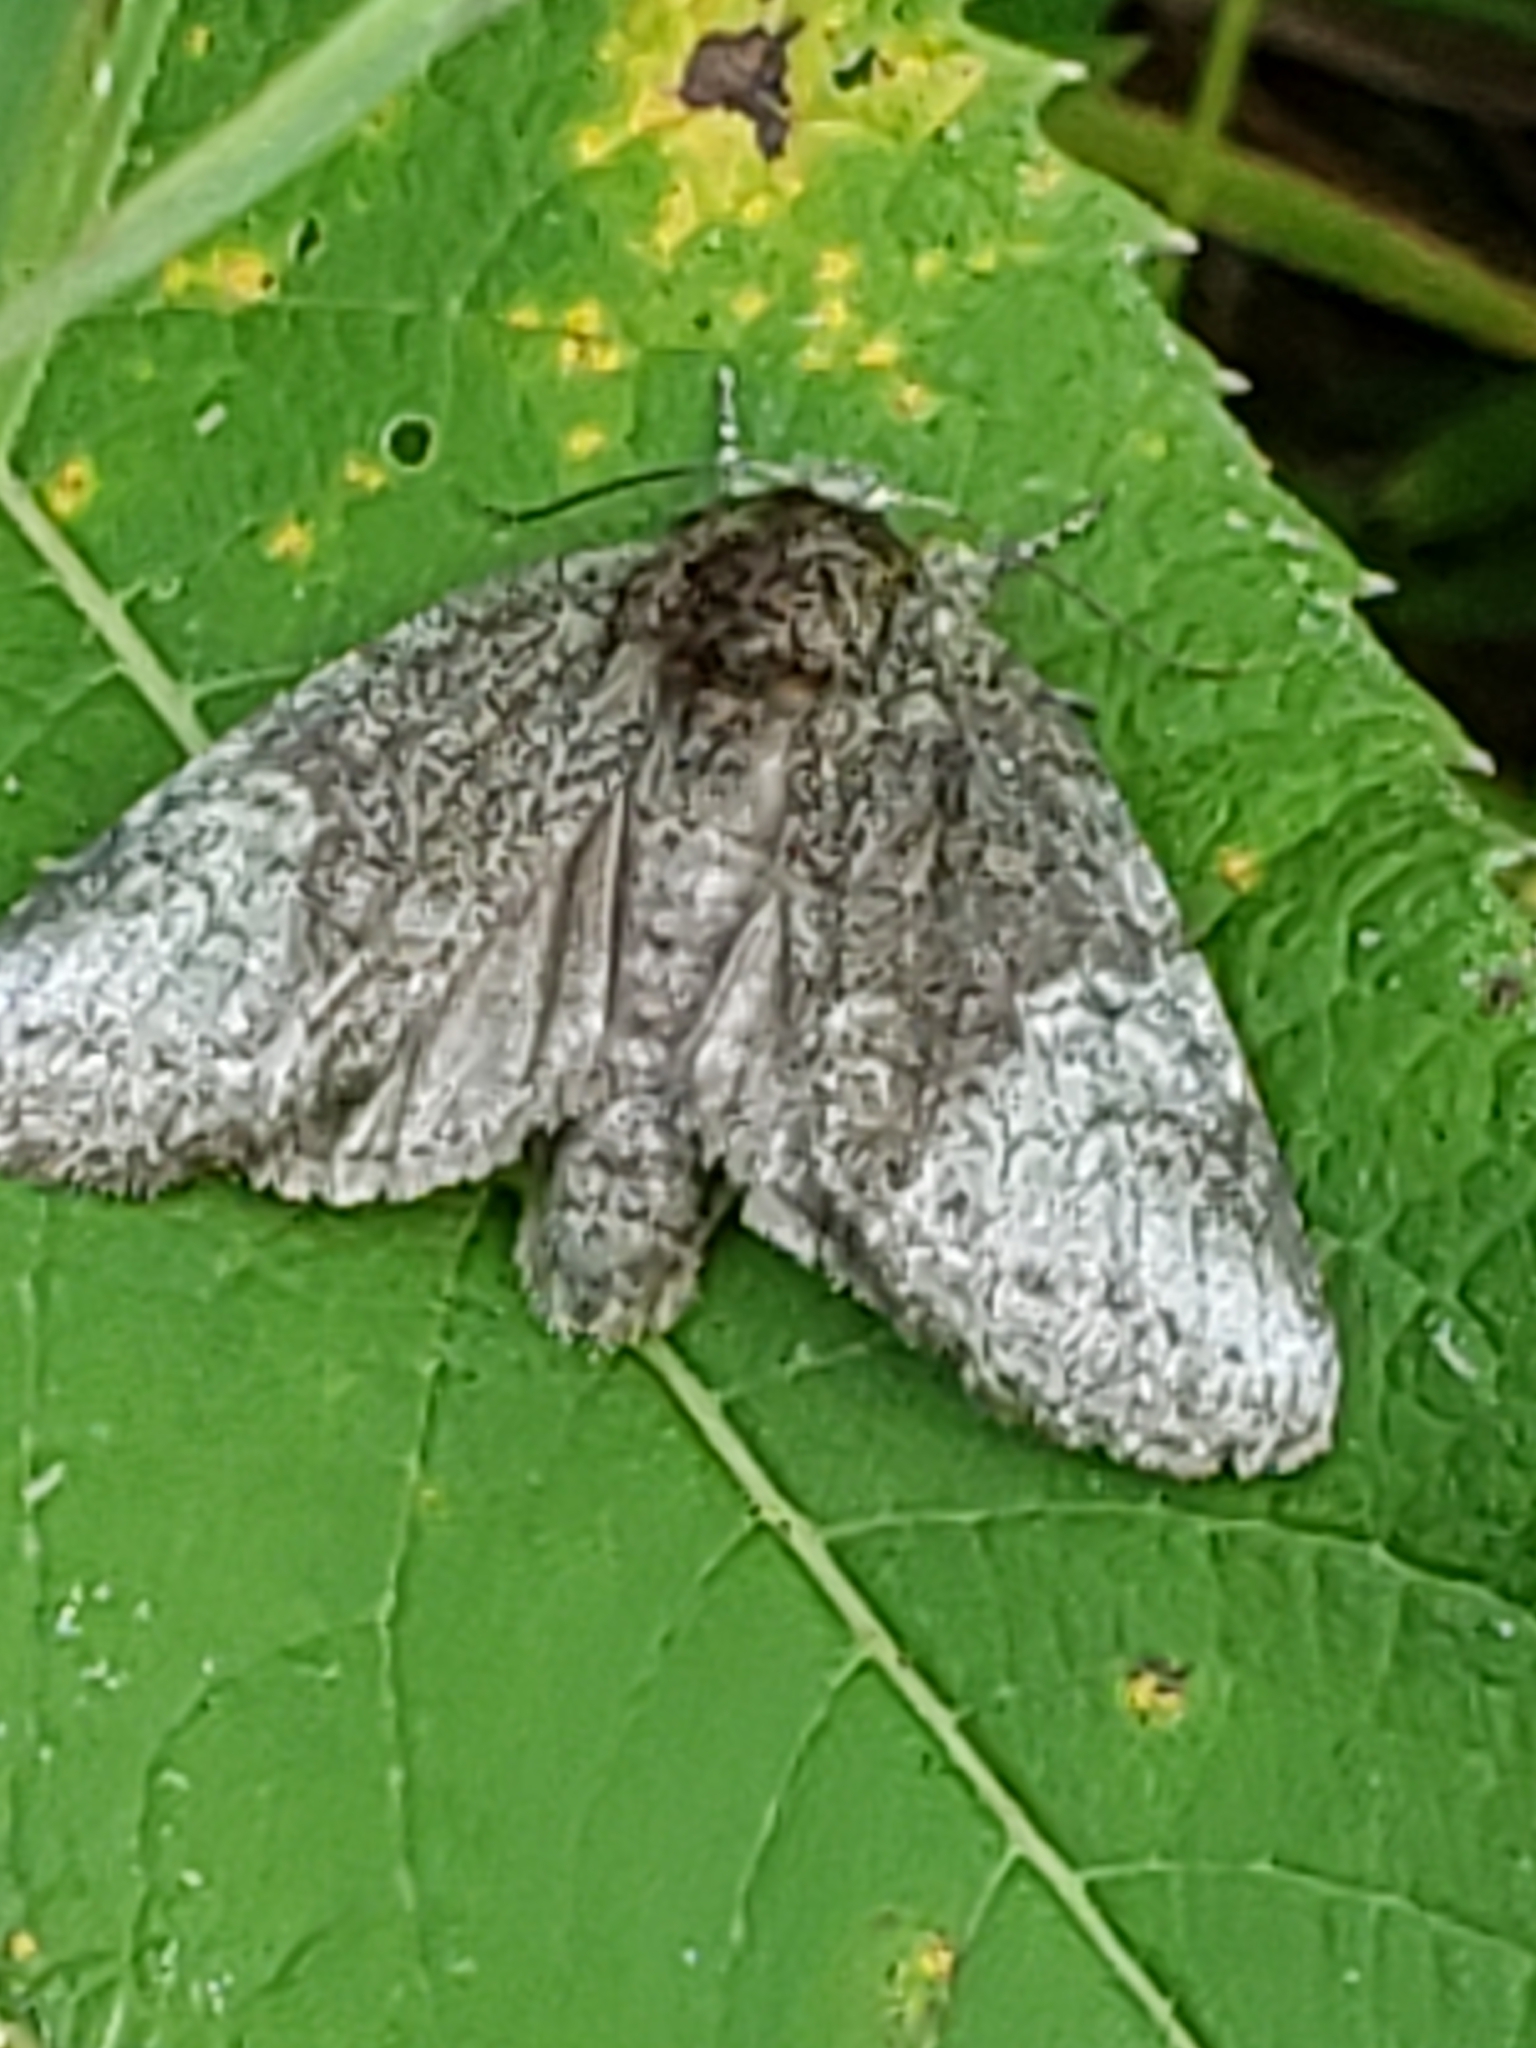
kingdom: Animalia
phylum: Arthropoda
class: Insecta
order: Lepidoptera
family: Notodontidae
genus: Disphragis
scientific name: Disphragis Cecrita guttivitta
